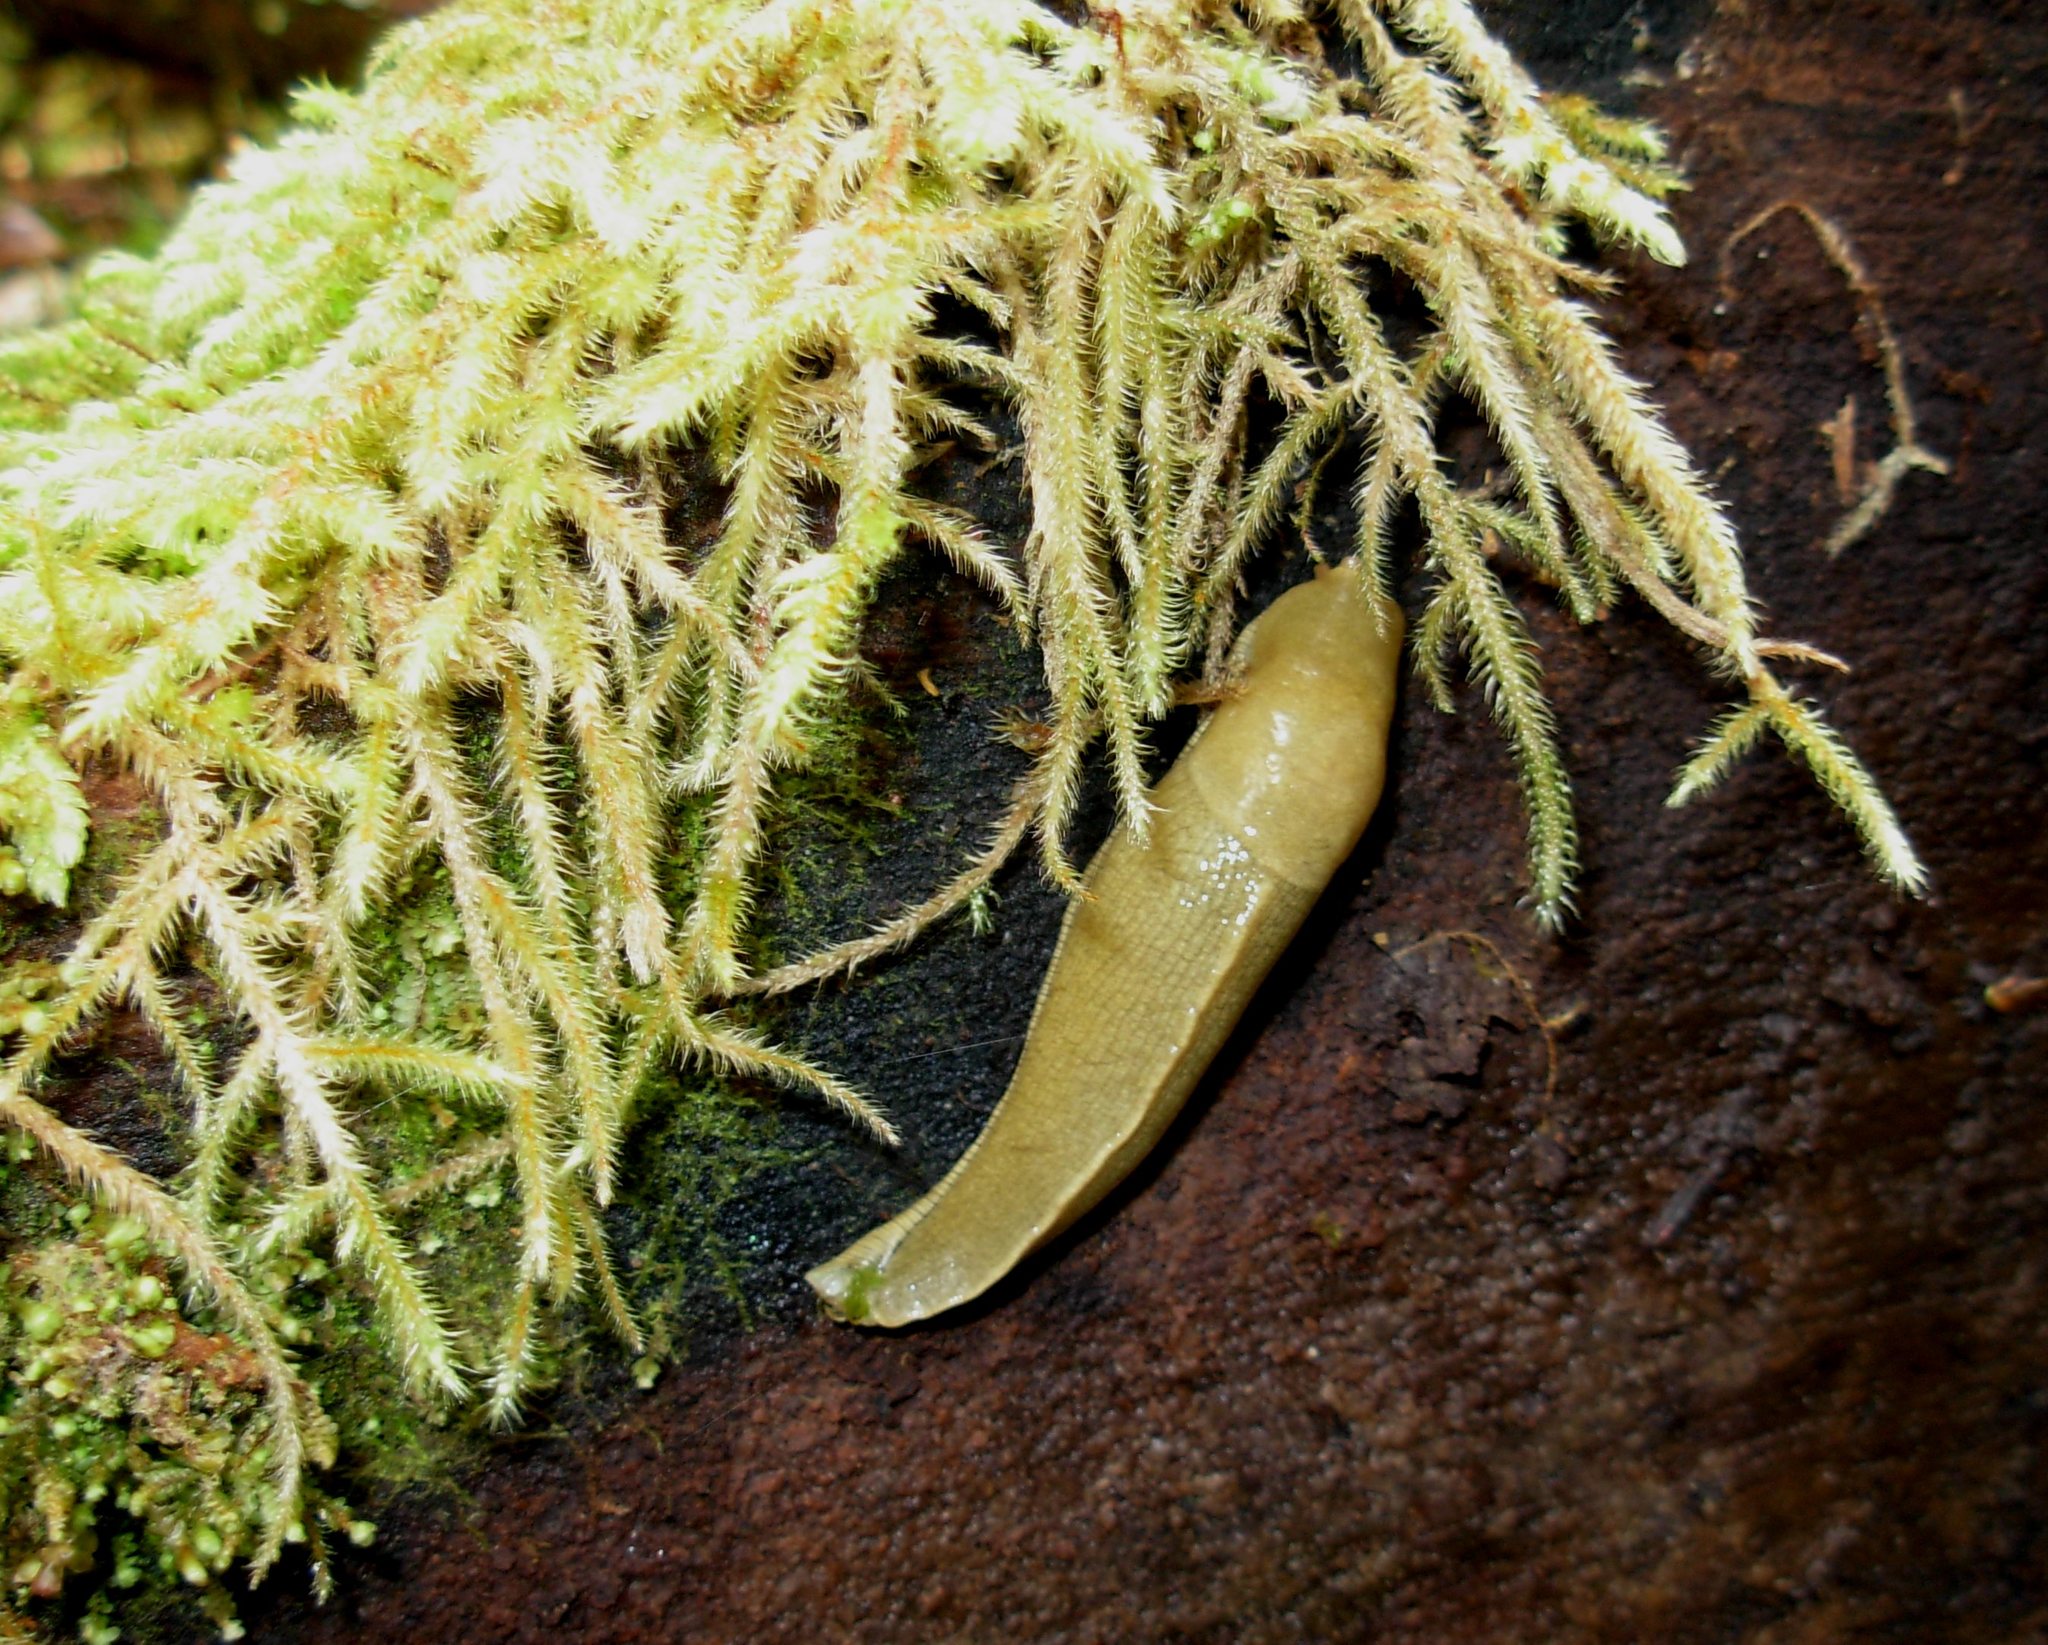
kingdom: Animalia
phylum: Mollusca
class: Gastropoda
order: Stylommatophora
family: Ariolimacidae
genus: Ariolimax
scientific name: Ariolimax columbianus
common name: Pacific banana slug
